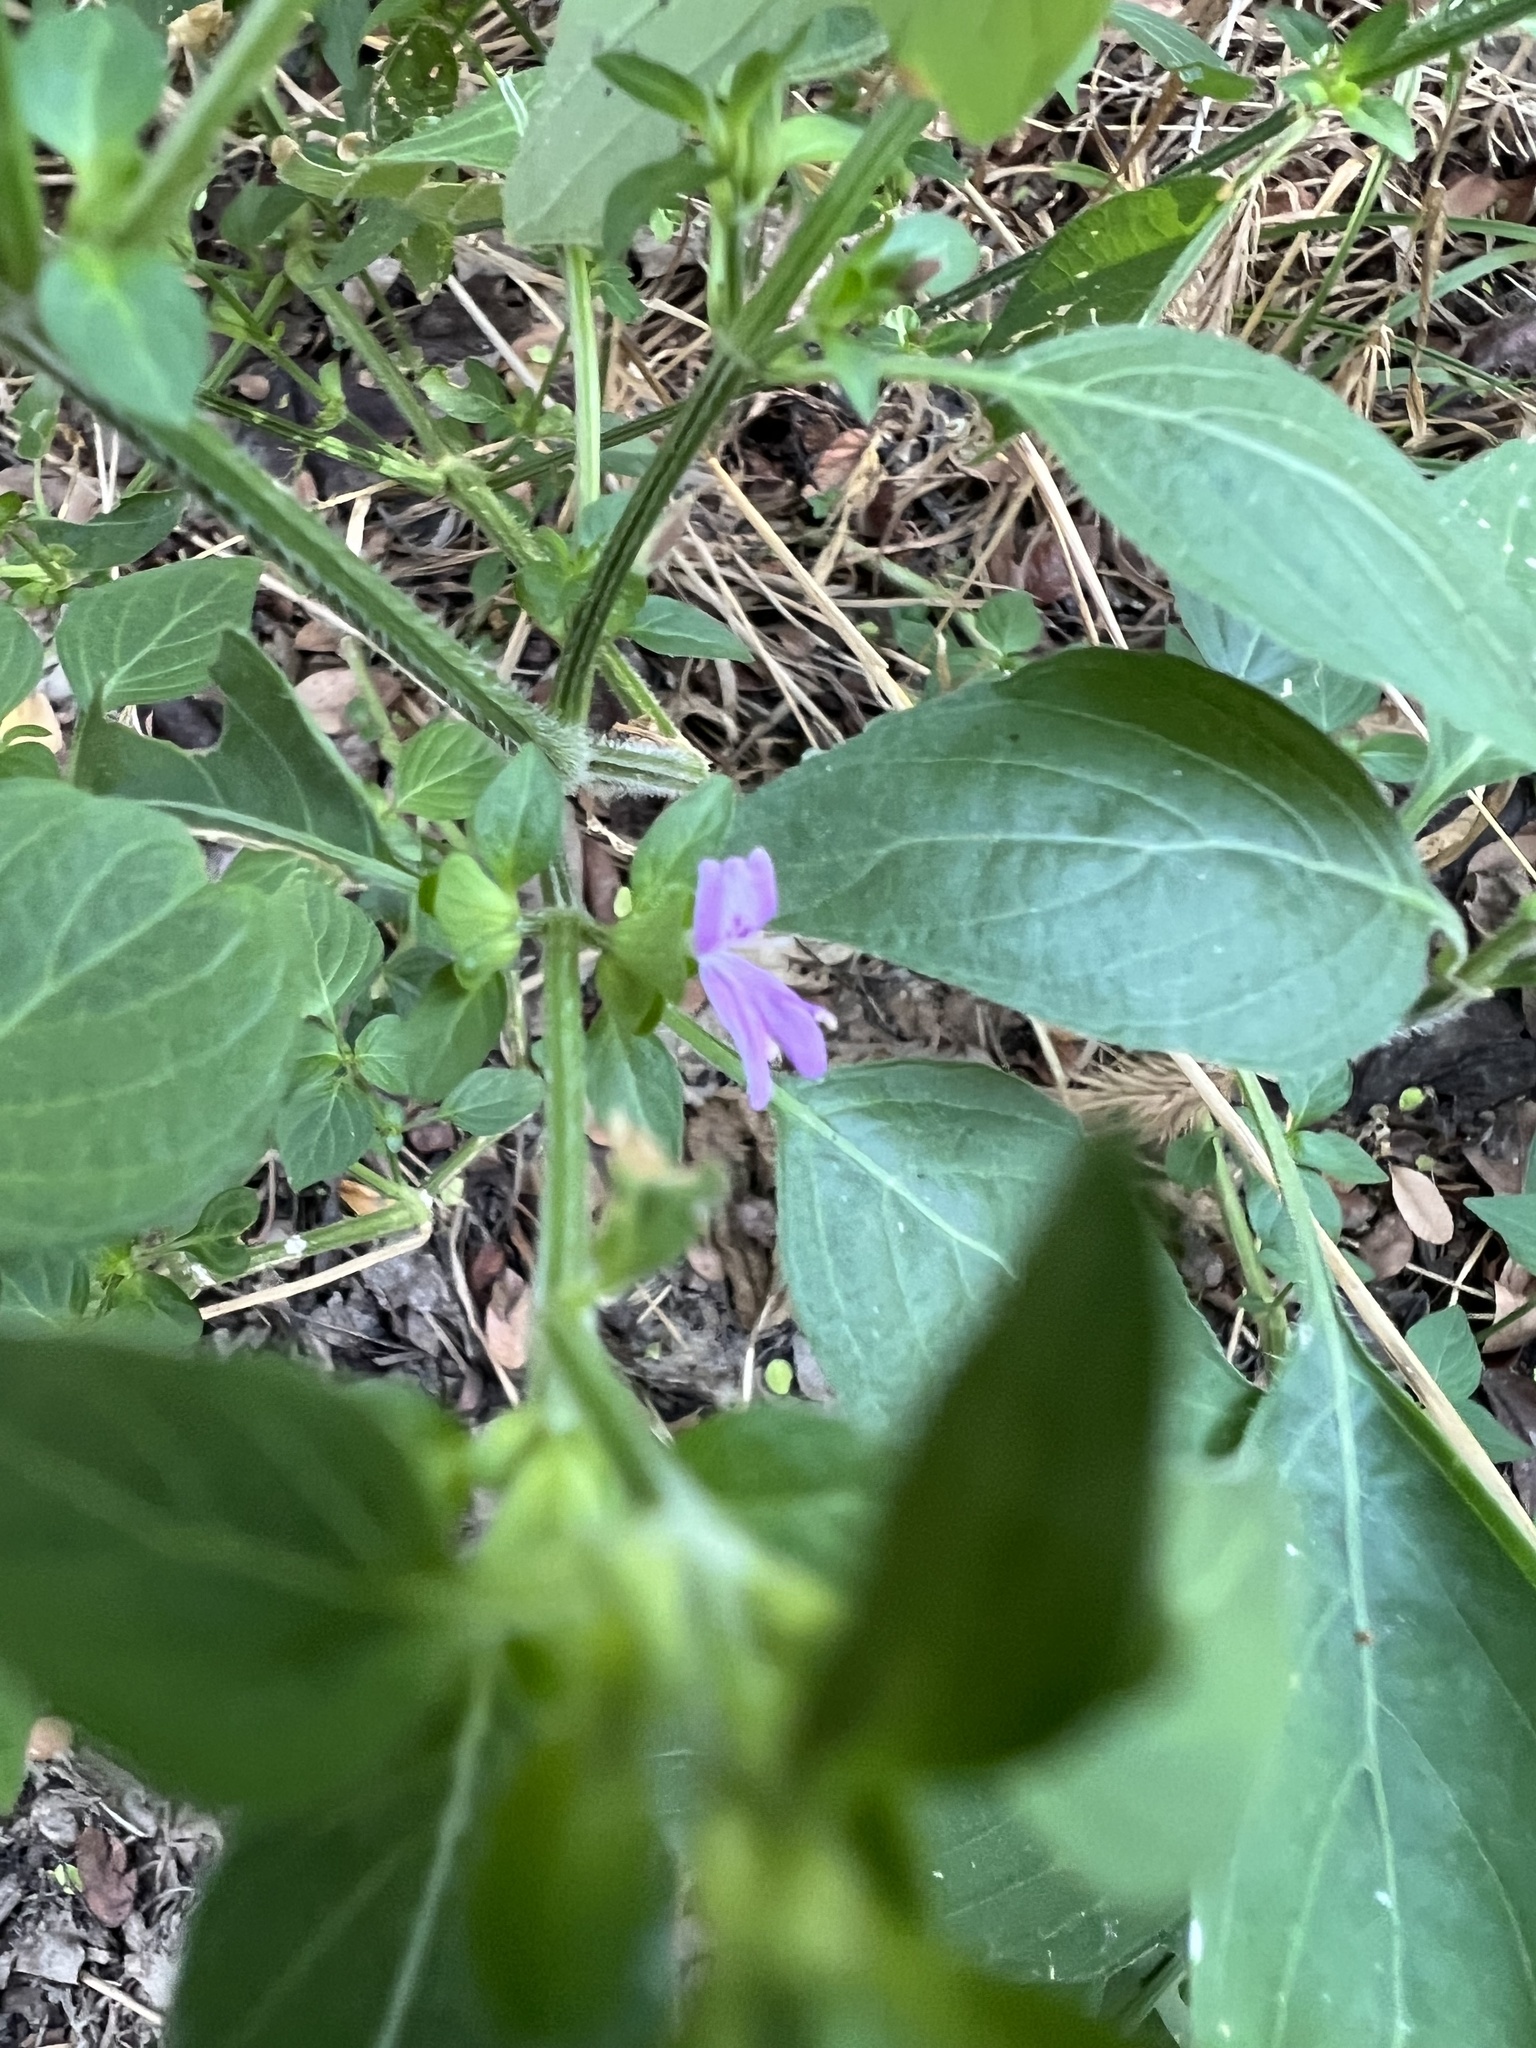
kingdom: Plantae
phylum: Tracheophyta
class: Magnoliopsida
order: Lamiales
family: Acanthaceae
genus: Dicliptera
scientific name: Dicliptera brachiata
